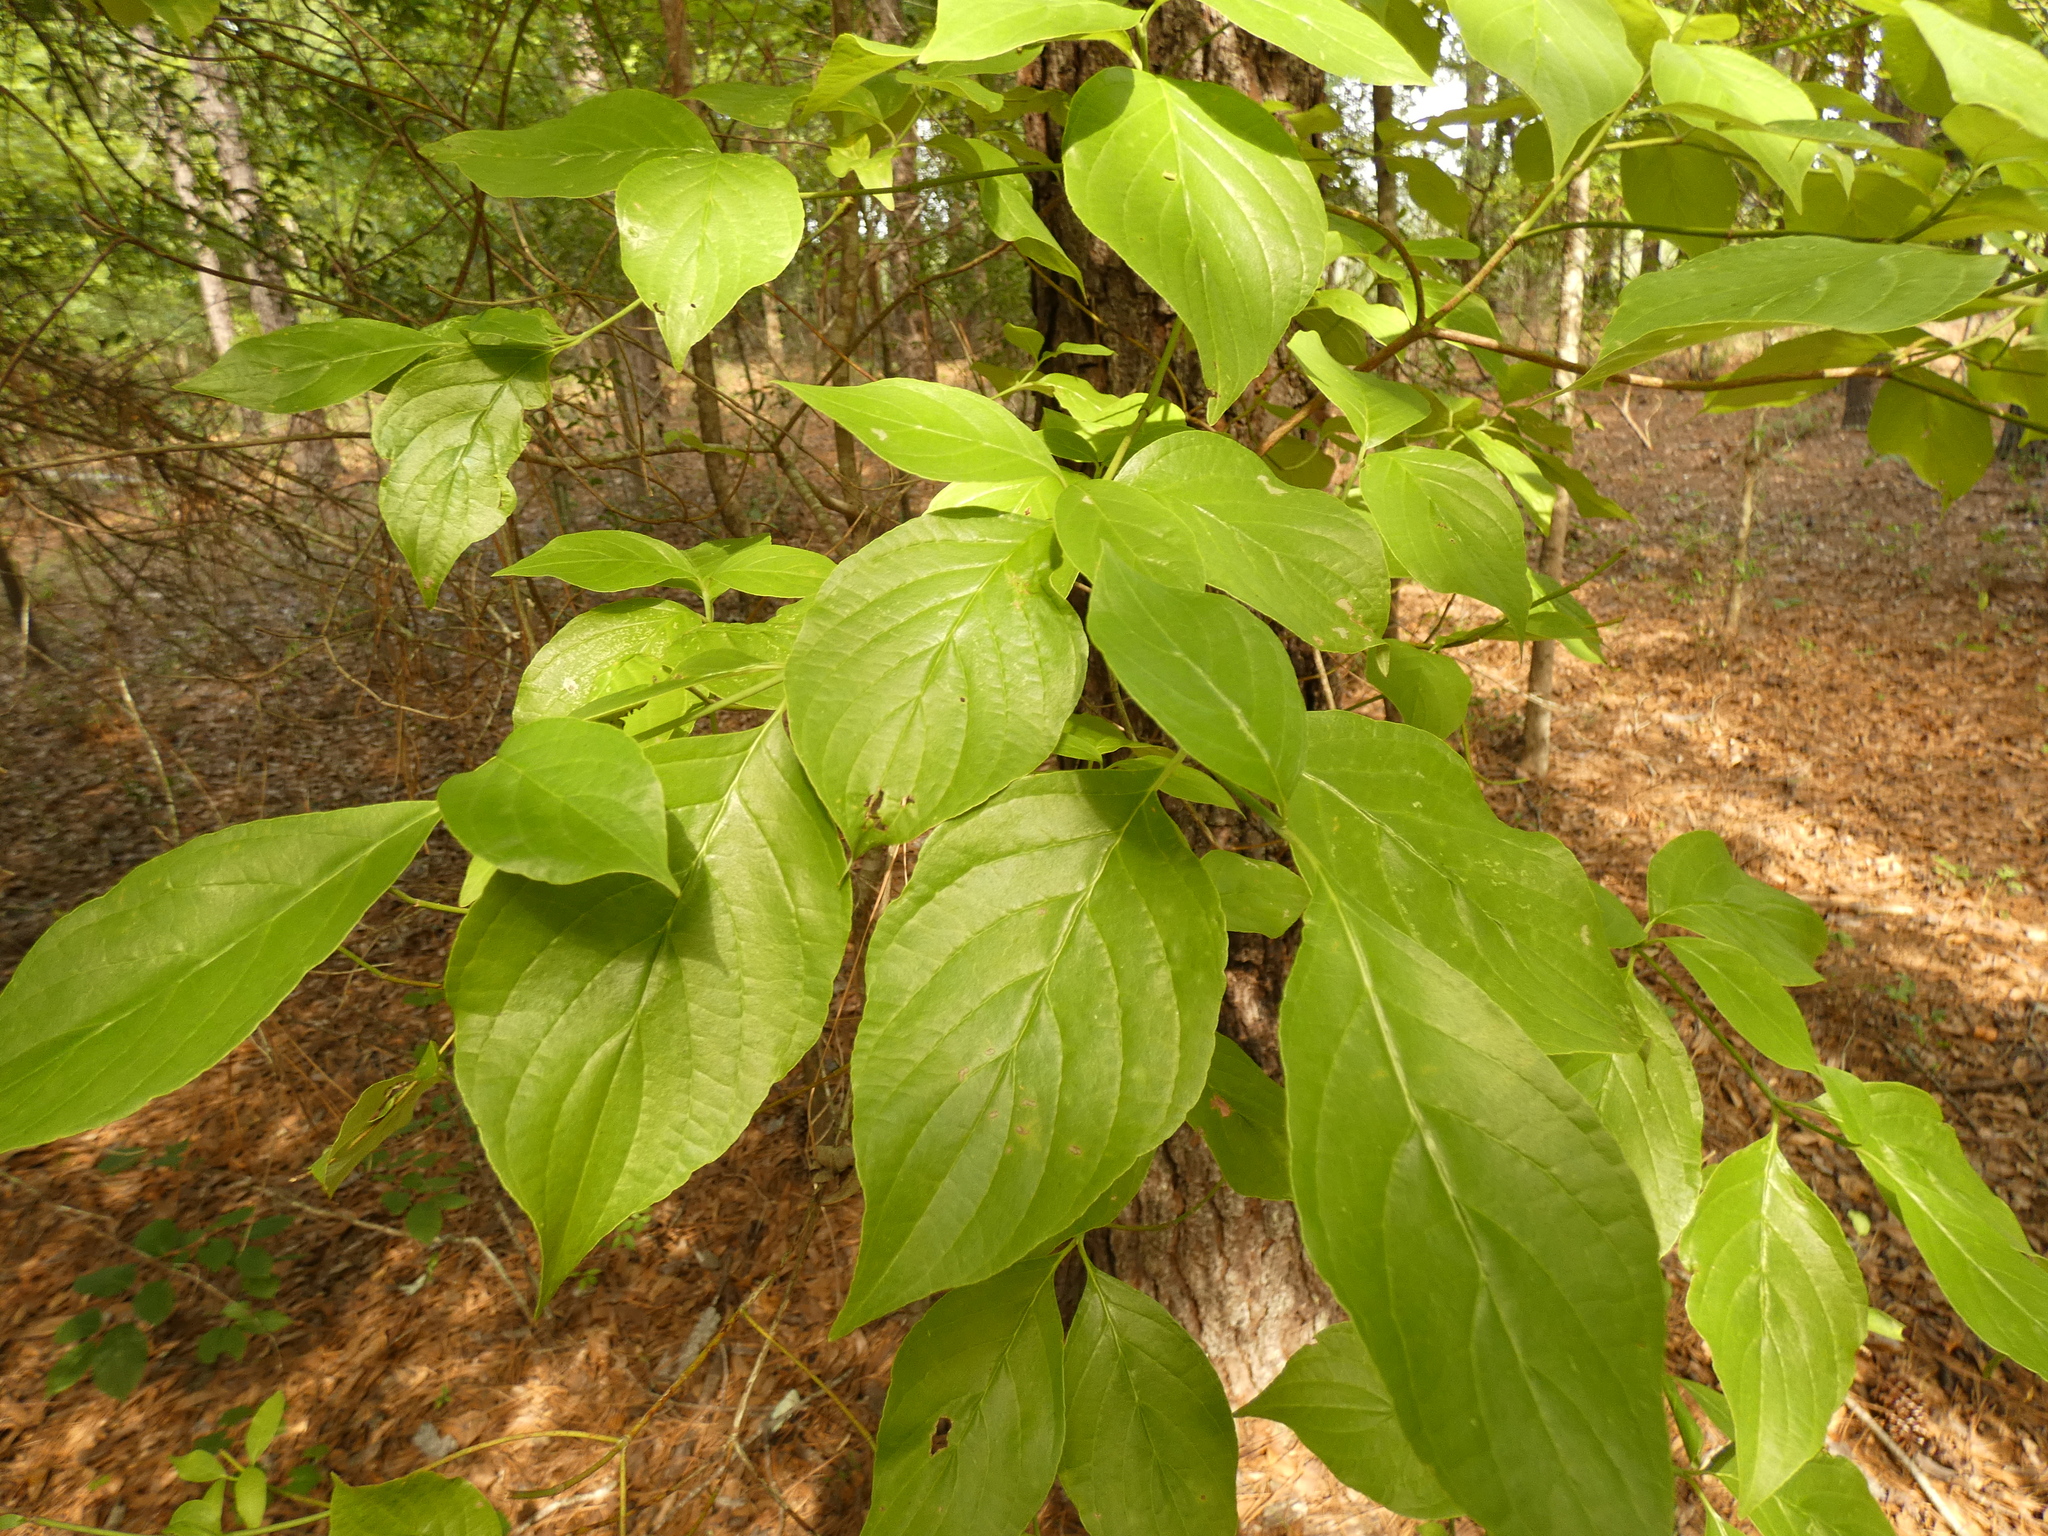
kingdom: Plantae
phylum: Tracheophyta
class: Magnoliopsida
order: Cornales
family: Cornaceae
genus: Cornus
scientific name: Cornus florida
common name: Flowering dogwood
